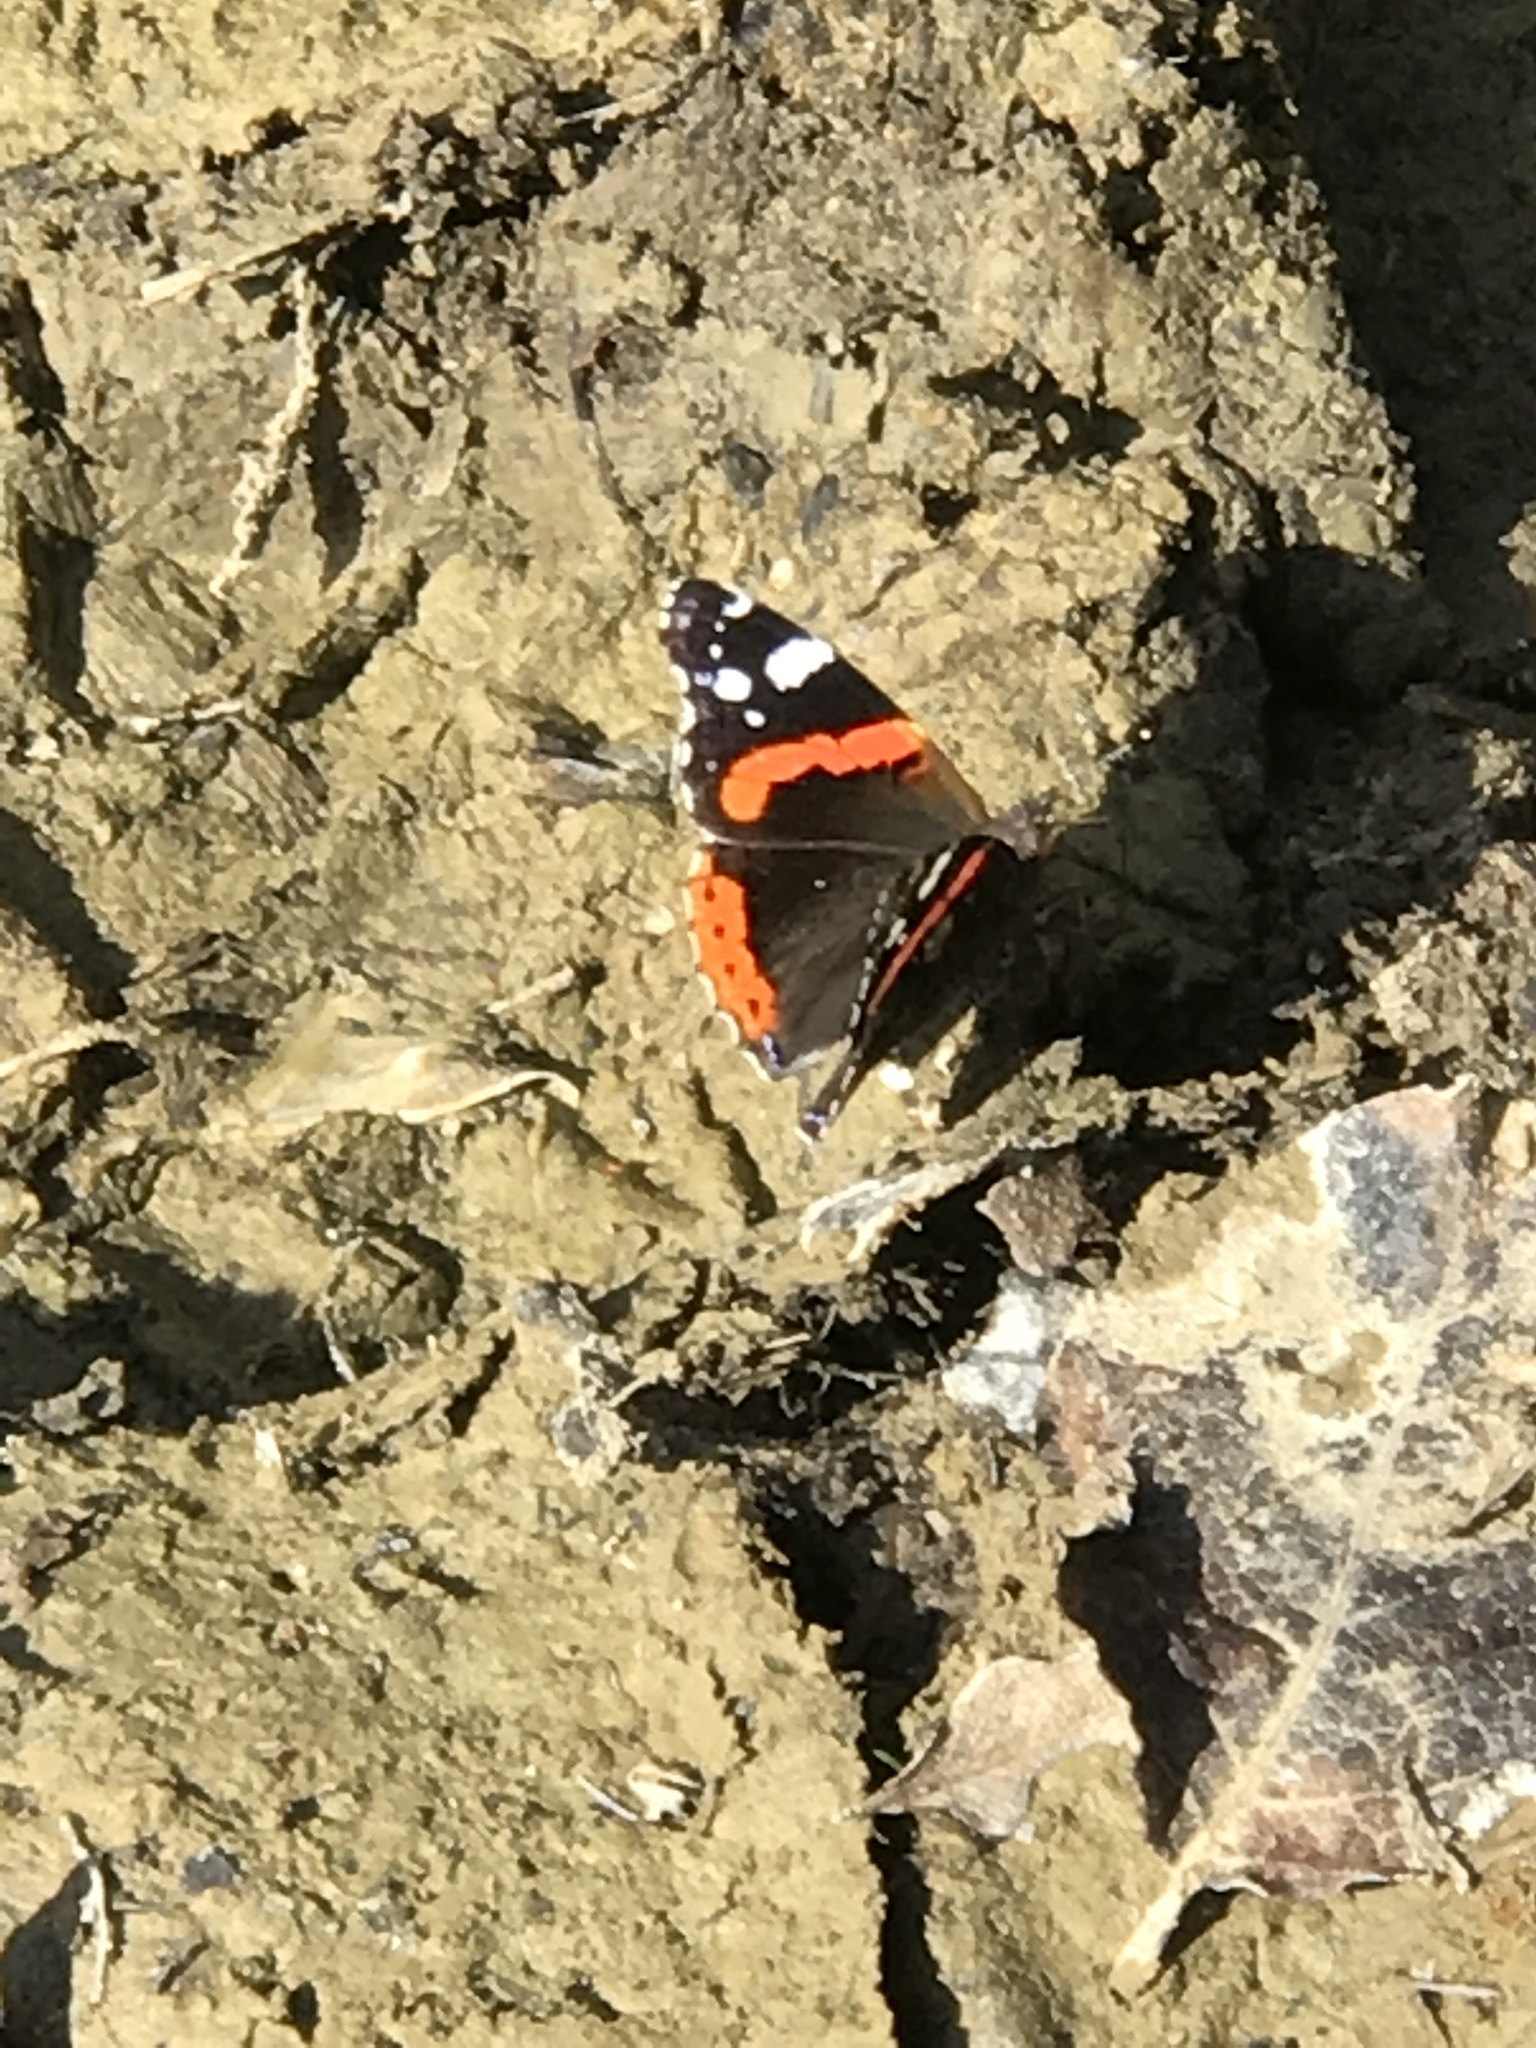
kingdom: Animalia
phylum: Arthropoda
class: Insecta
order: Lepidoptera
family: Nymphalidae
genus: Vanessa
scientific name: Vanessa atalanta
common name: Red admiral
